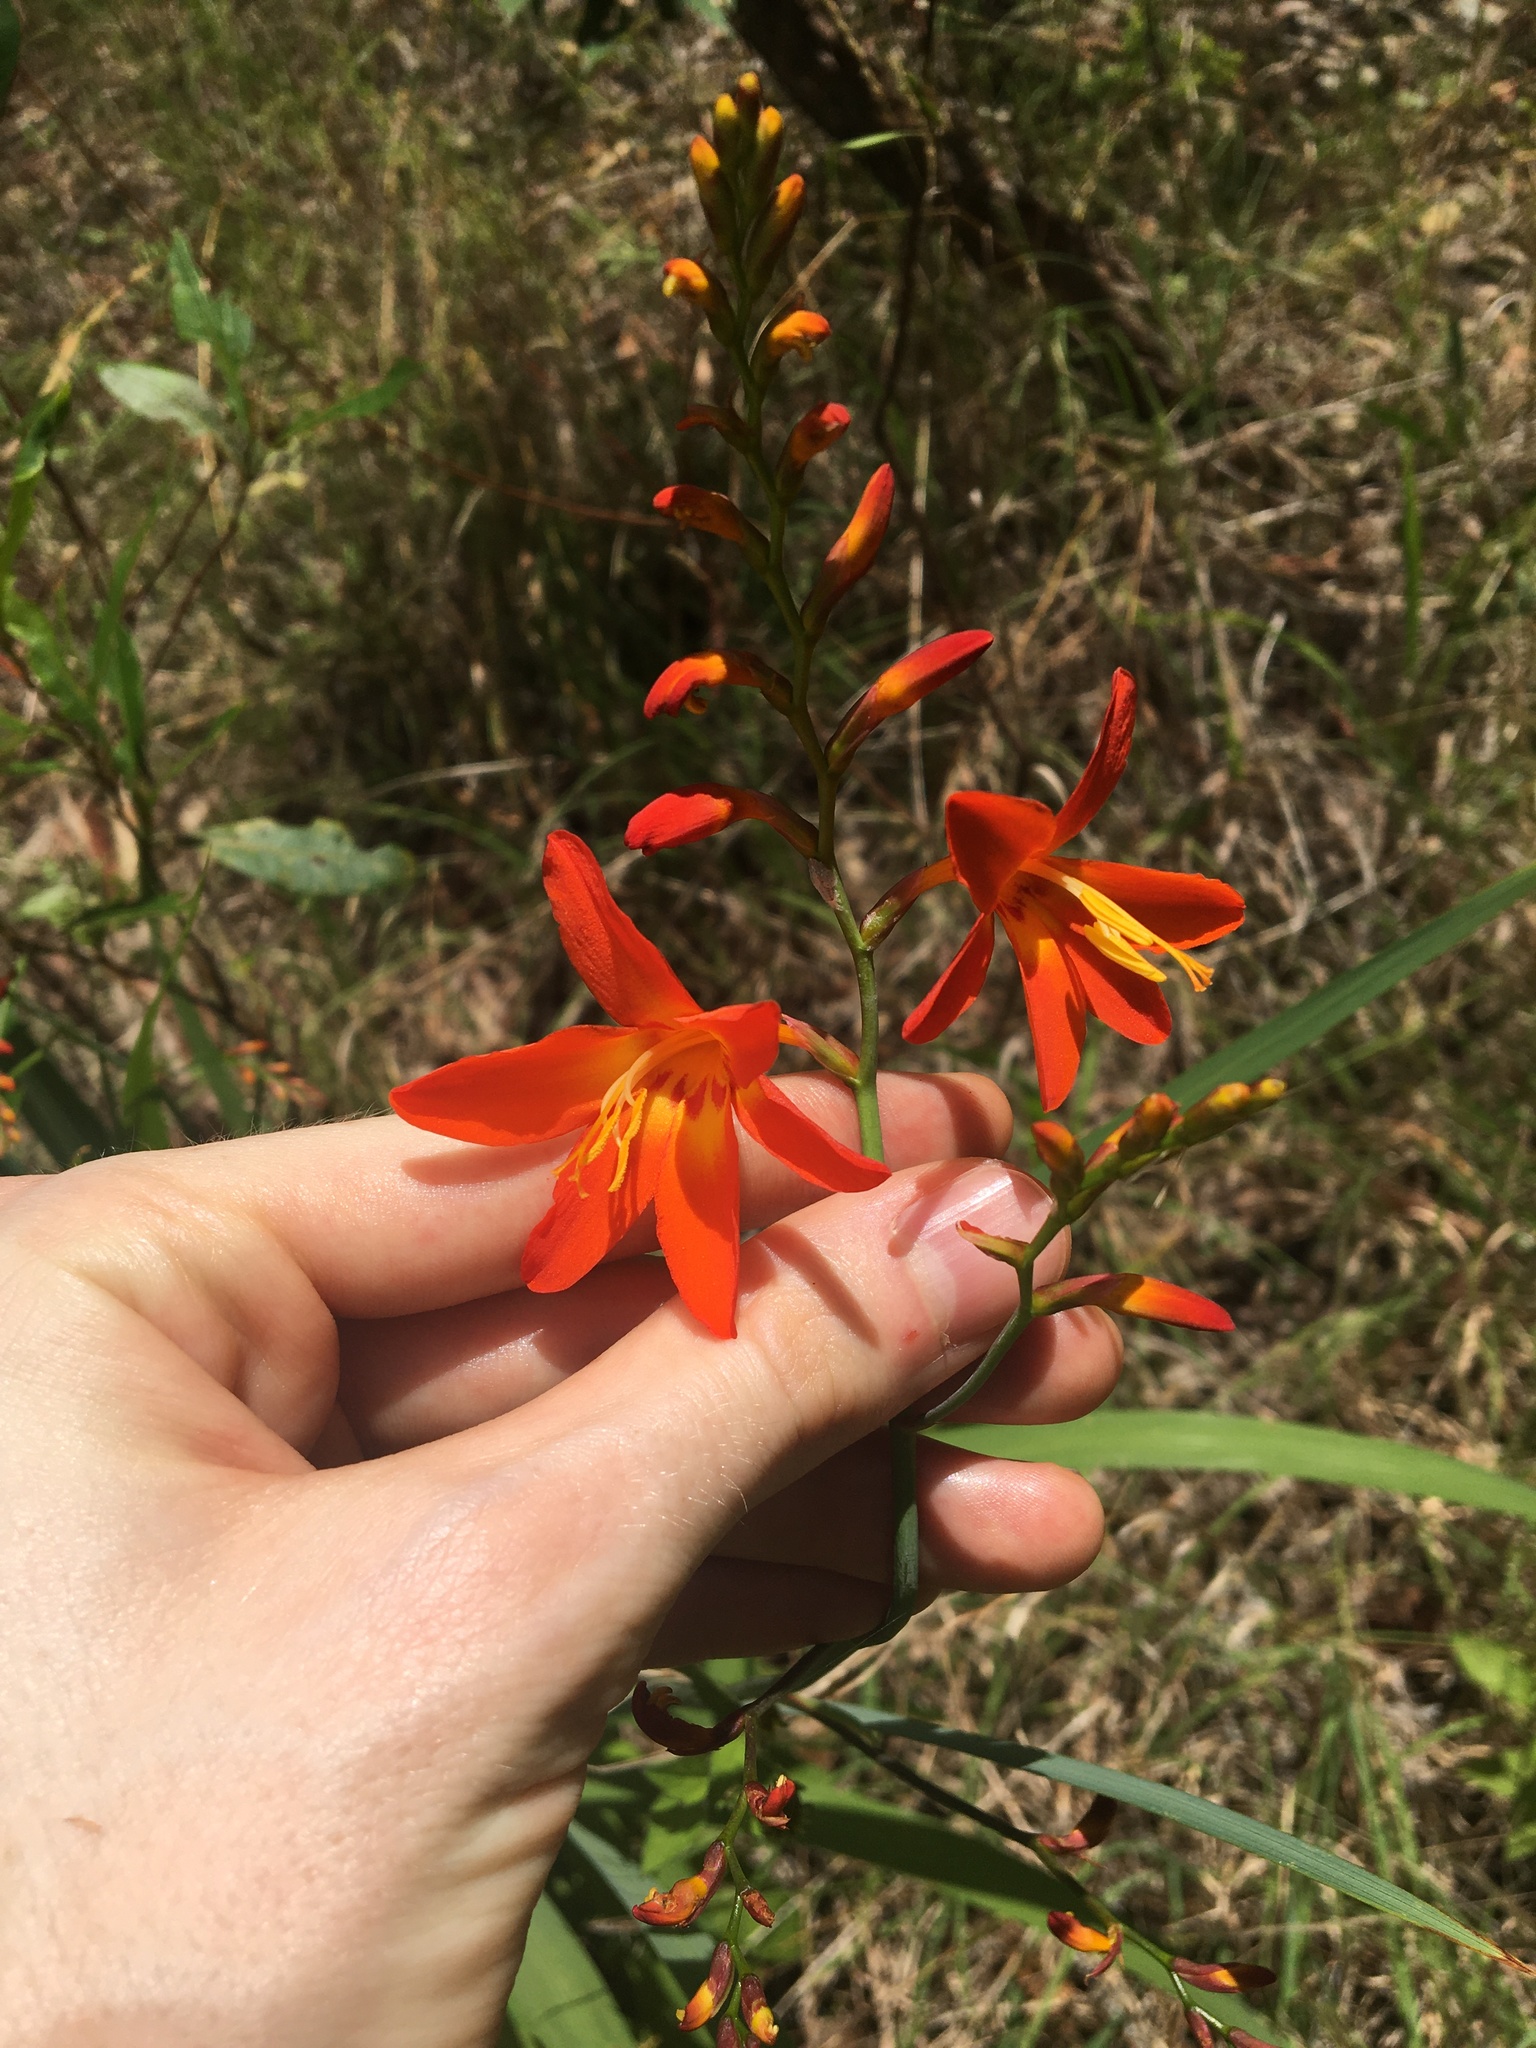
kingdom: Plantae
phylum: Tracheophyta
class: Liliopsida
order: Asparagales
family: Iridaceae
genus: Crocosmia
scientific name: Crocosmia crocosmiiflora
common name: Montbretia
